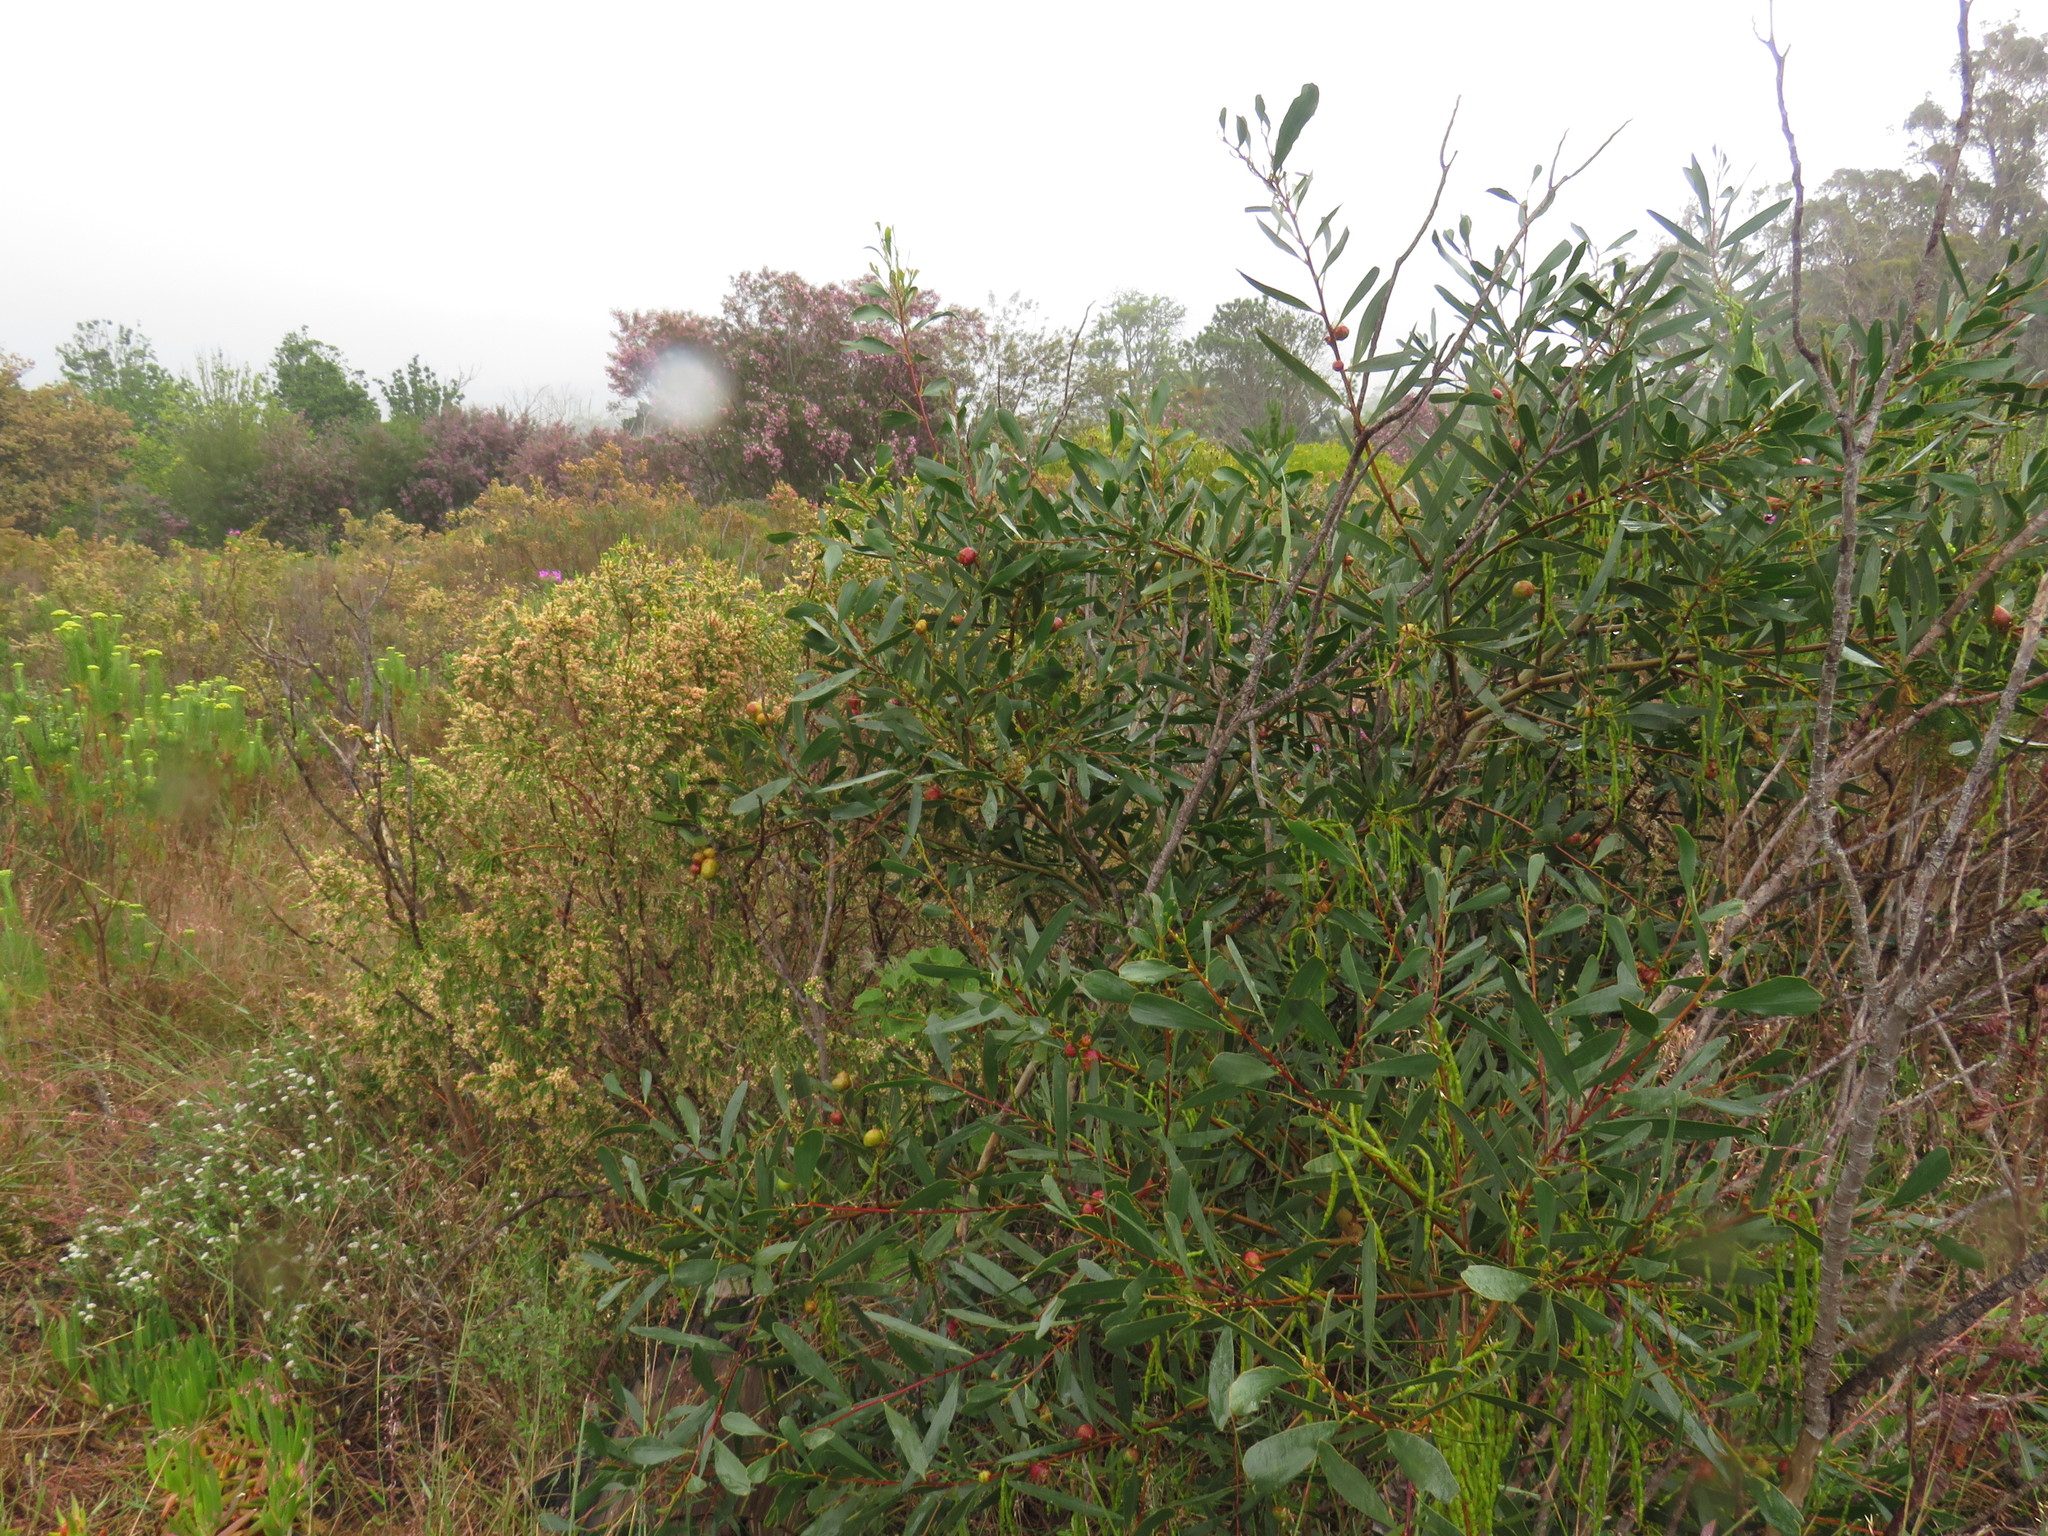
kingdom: Animalia
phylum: Arthropoda
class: Insecta
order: Hymenoptera
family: Pteromalidae
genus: Trichilogaster
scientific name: Trichilogaster acaciaelongifoliae
